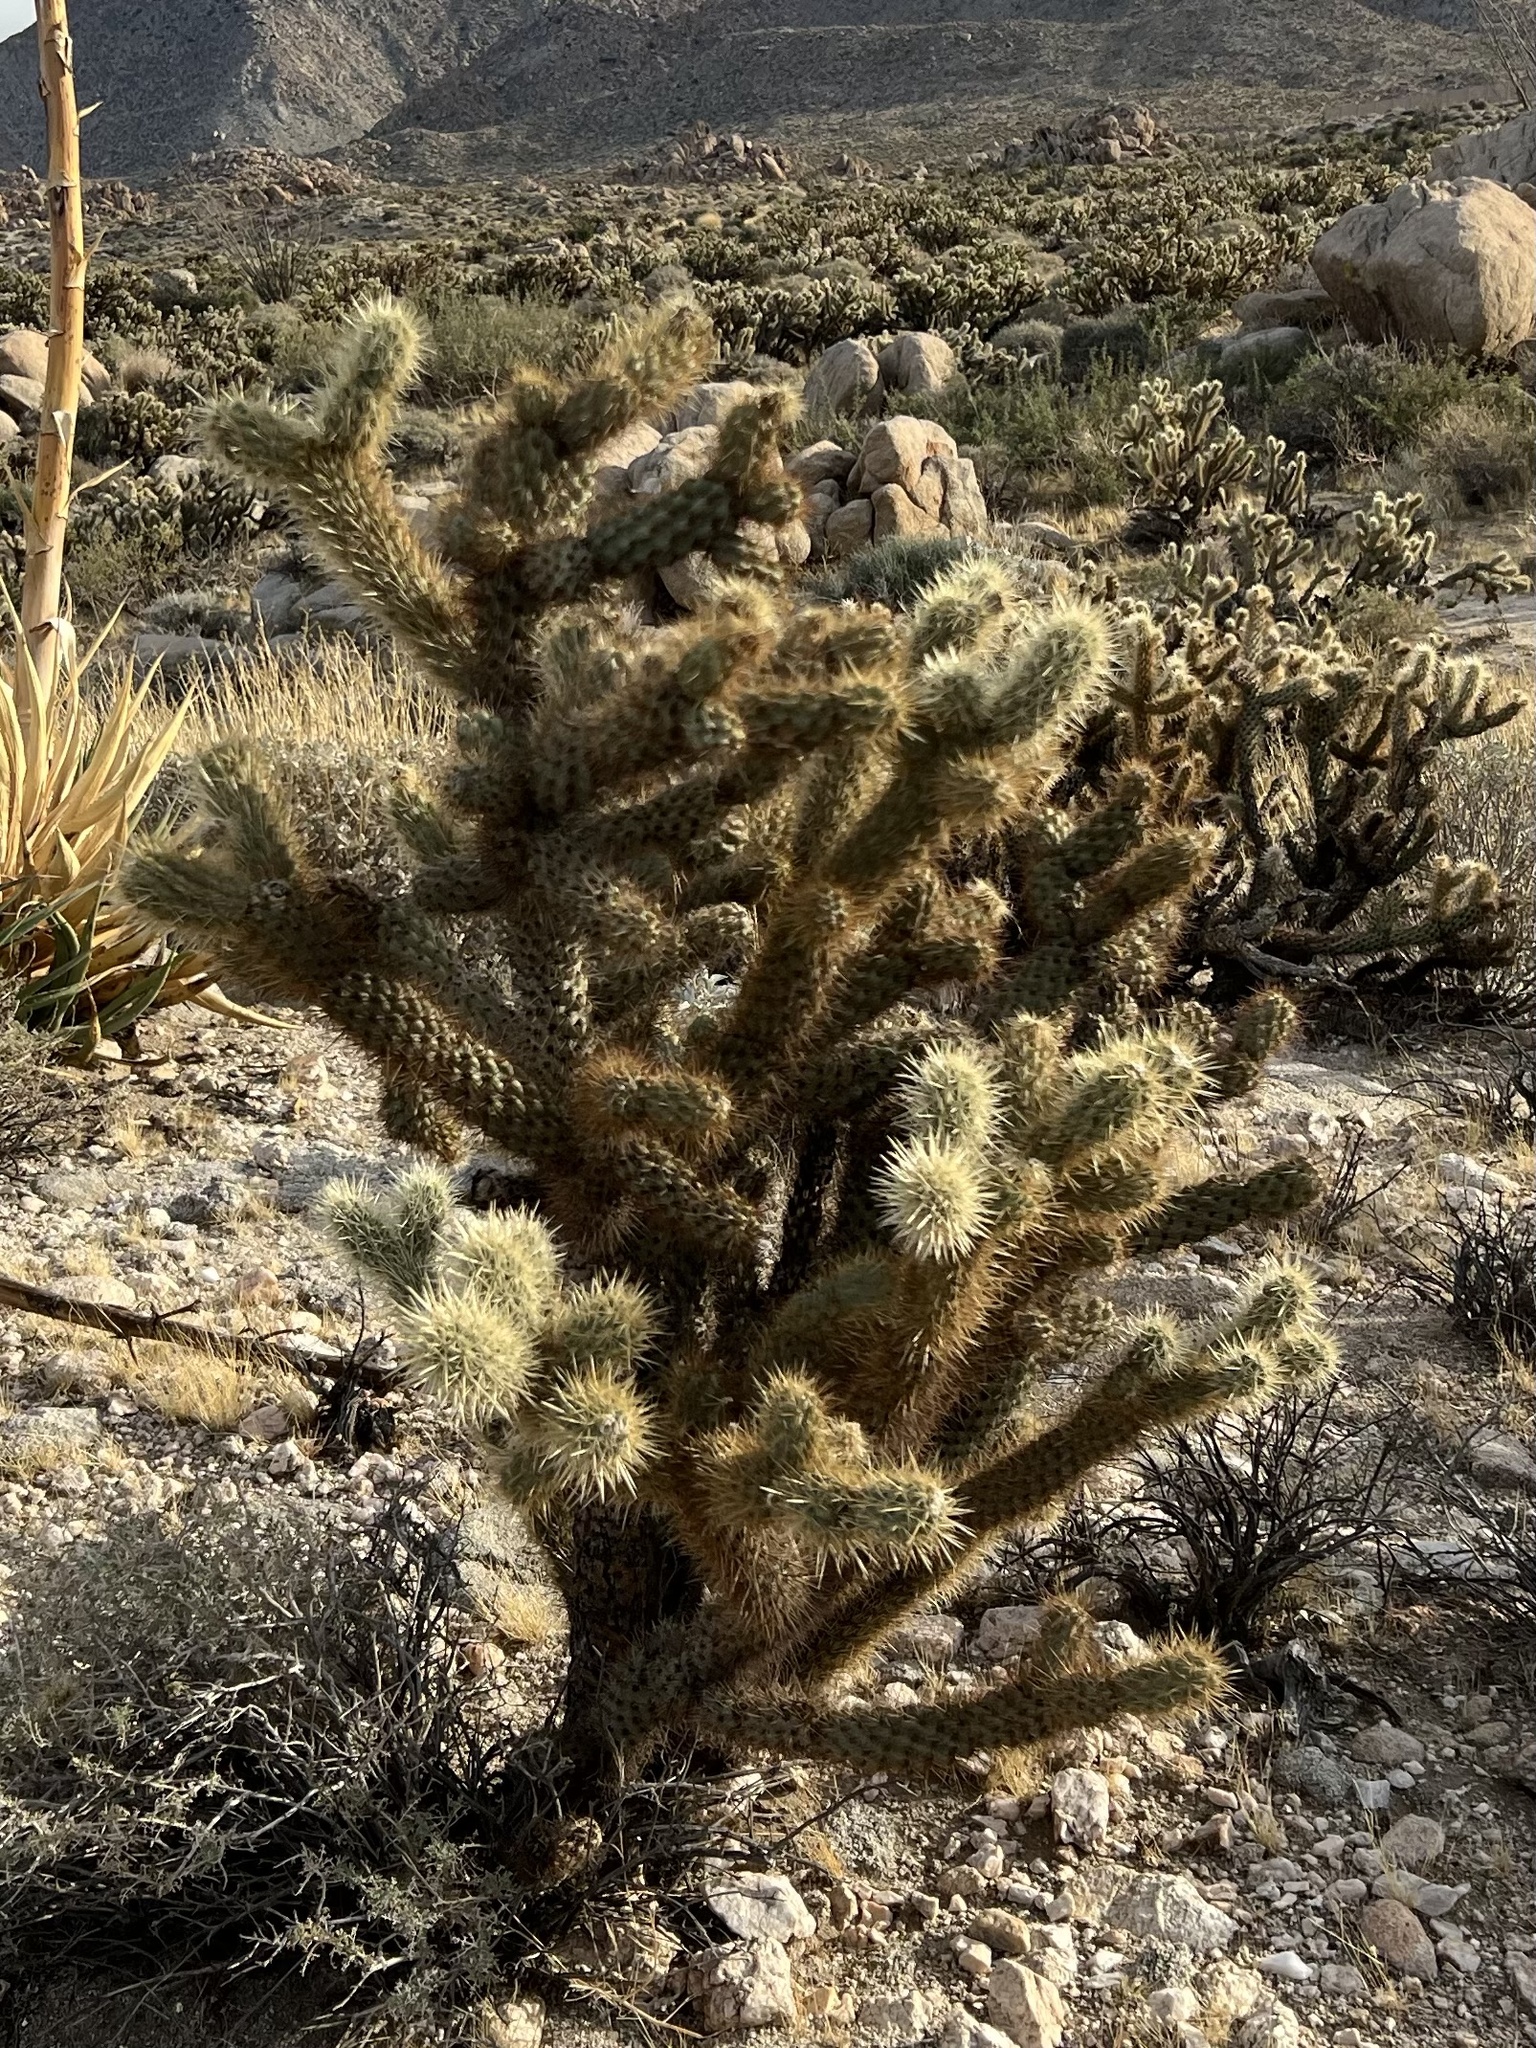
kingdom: Plantae
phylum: Tracheophyta
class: Magnoliopsida
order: Caryophyllales
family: Cactaceae
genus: Cylindropuntia
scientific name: Cylindropuntia ganderi
